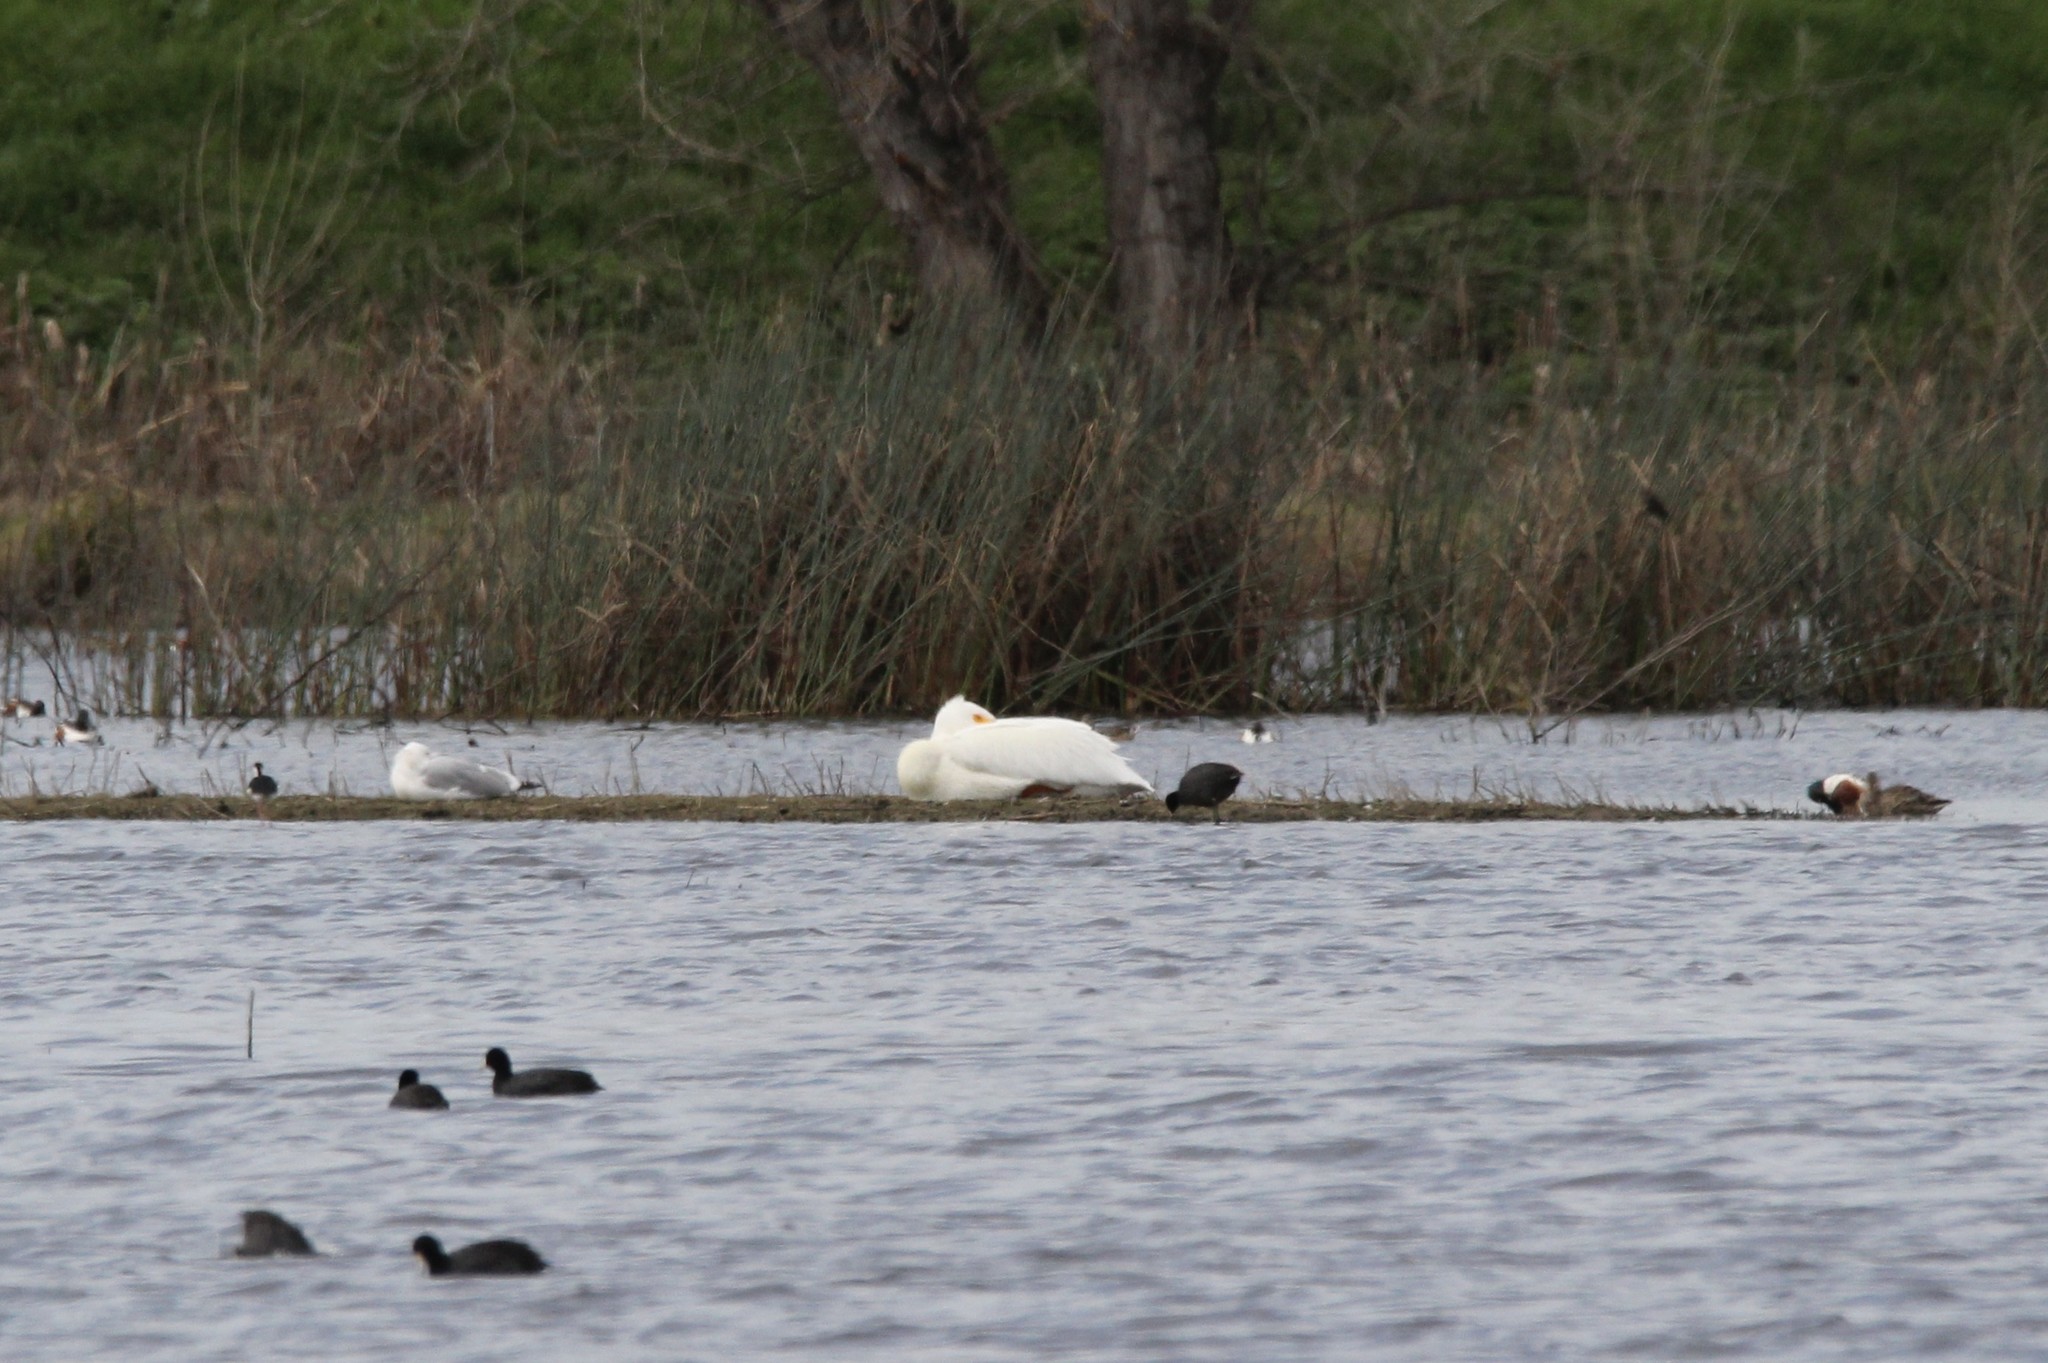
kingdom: Animalia
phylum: Chordata
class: Aves
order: Pelecaniformes
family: Pelecanidae
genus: Pelecanus
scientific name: Pelecanus erythrorhynchos
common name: American white pelican
